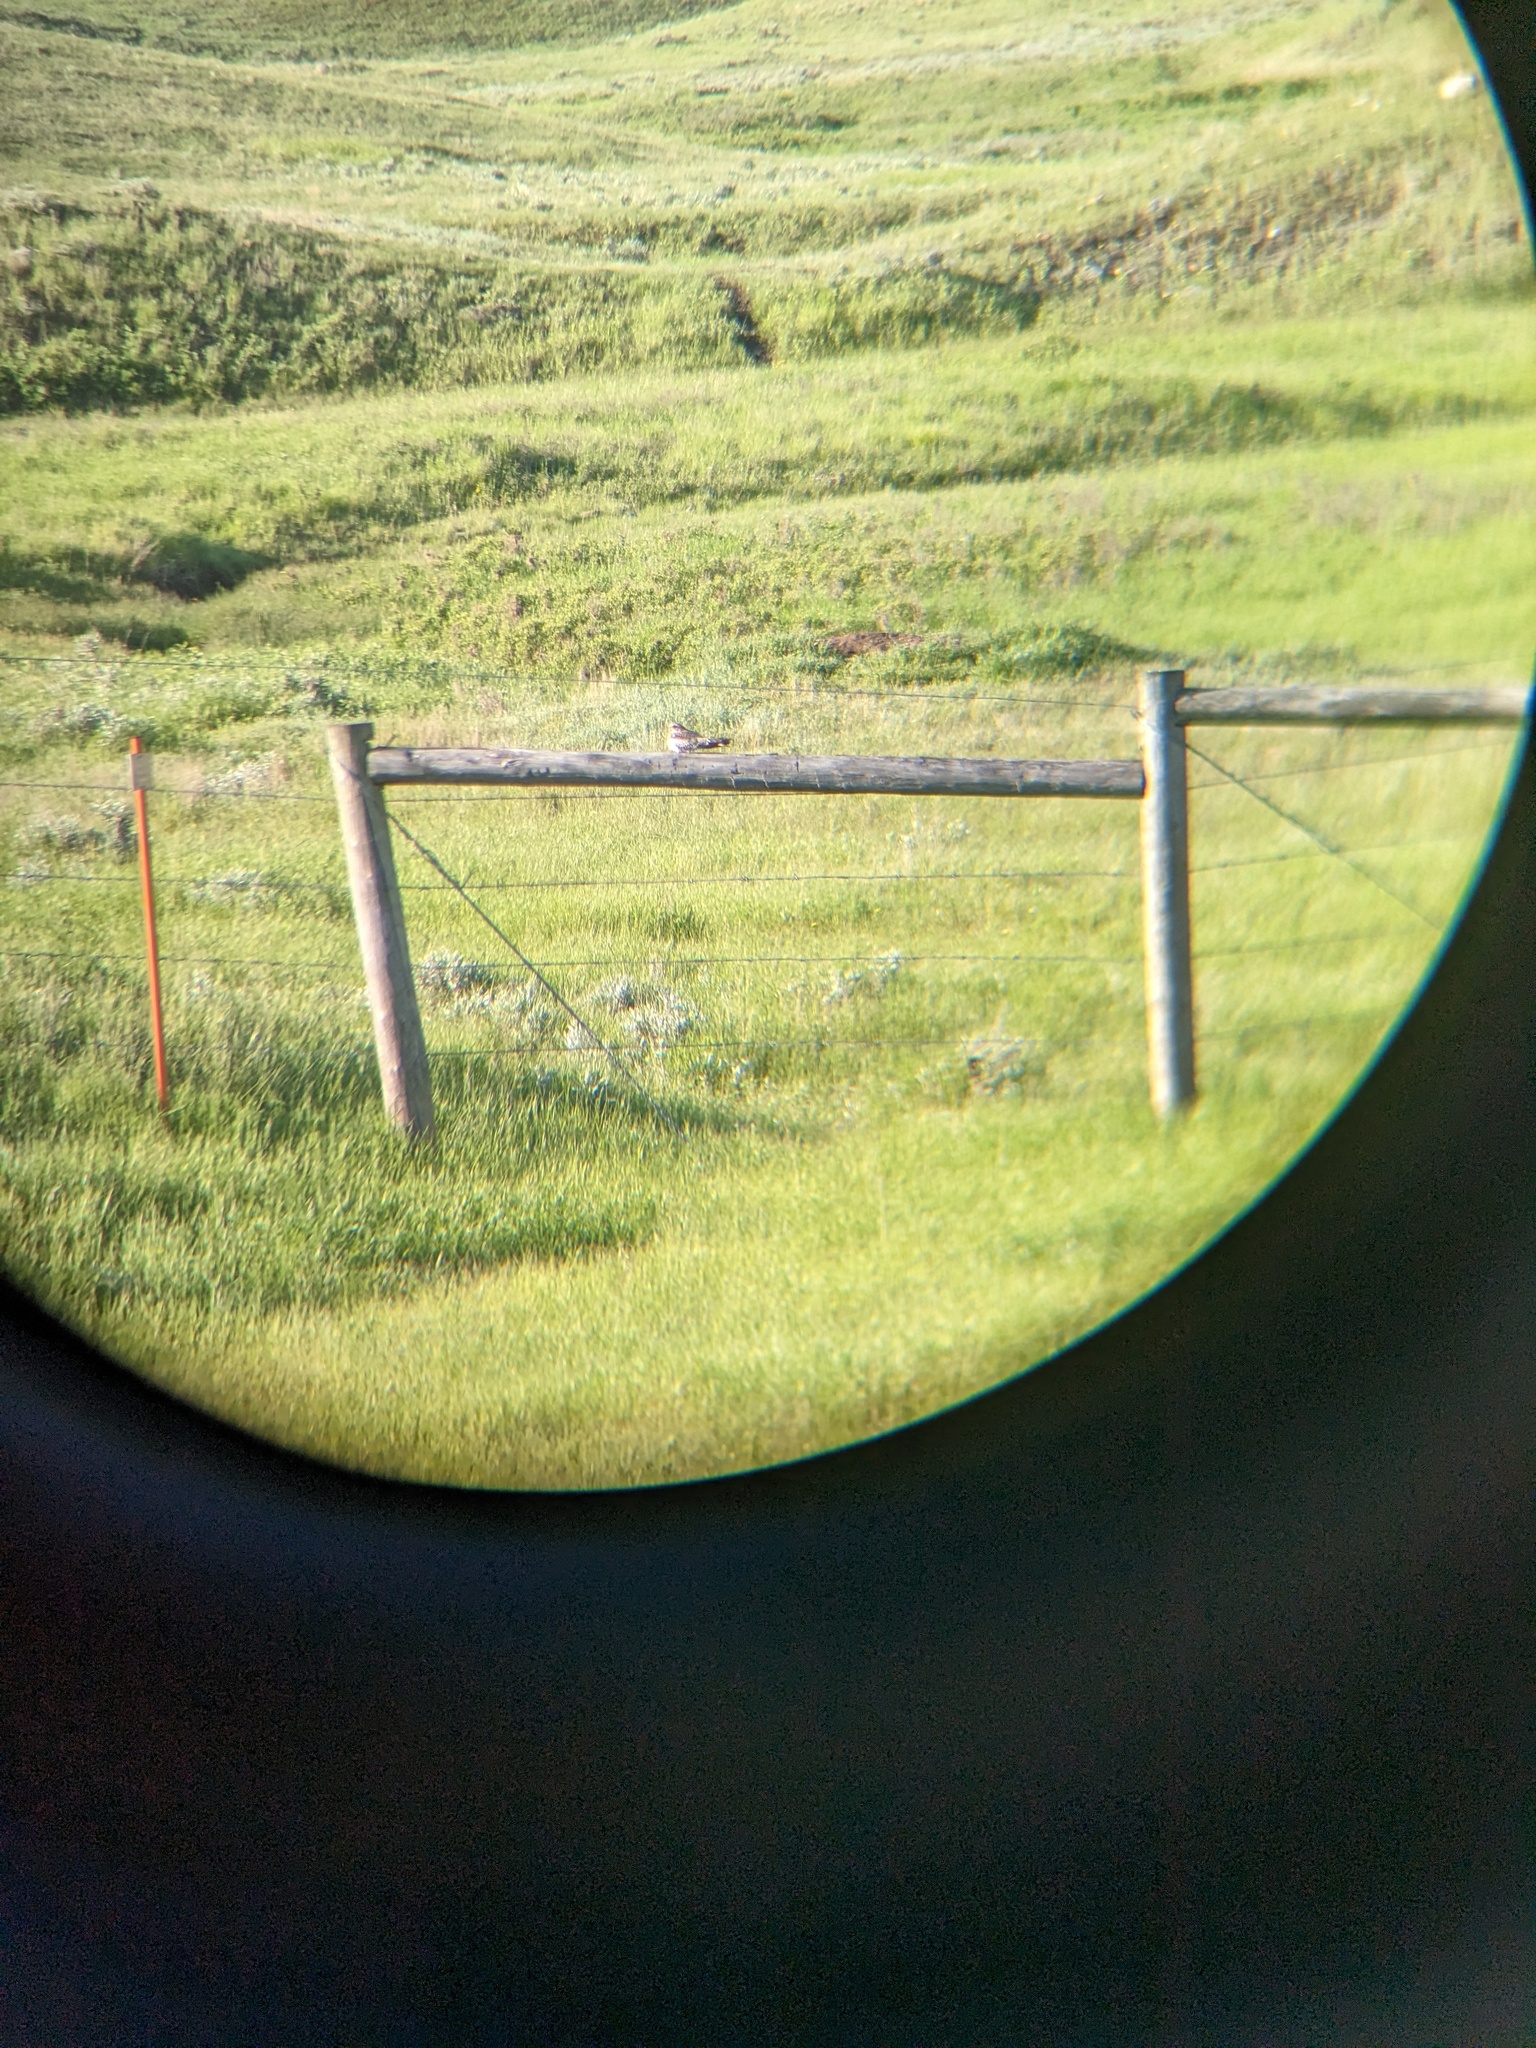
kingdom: Animalia
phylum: Chordata
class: Aves
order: Caprimulgiformes
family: Caprimulgidae
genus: Chordeiles
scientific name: Chordeiles minor
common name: Common nighthawk
